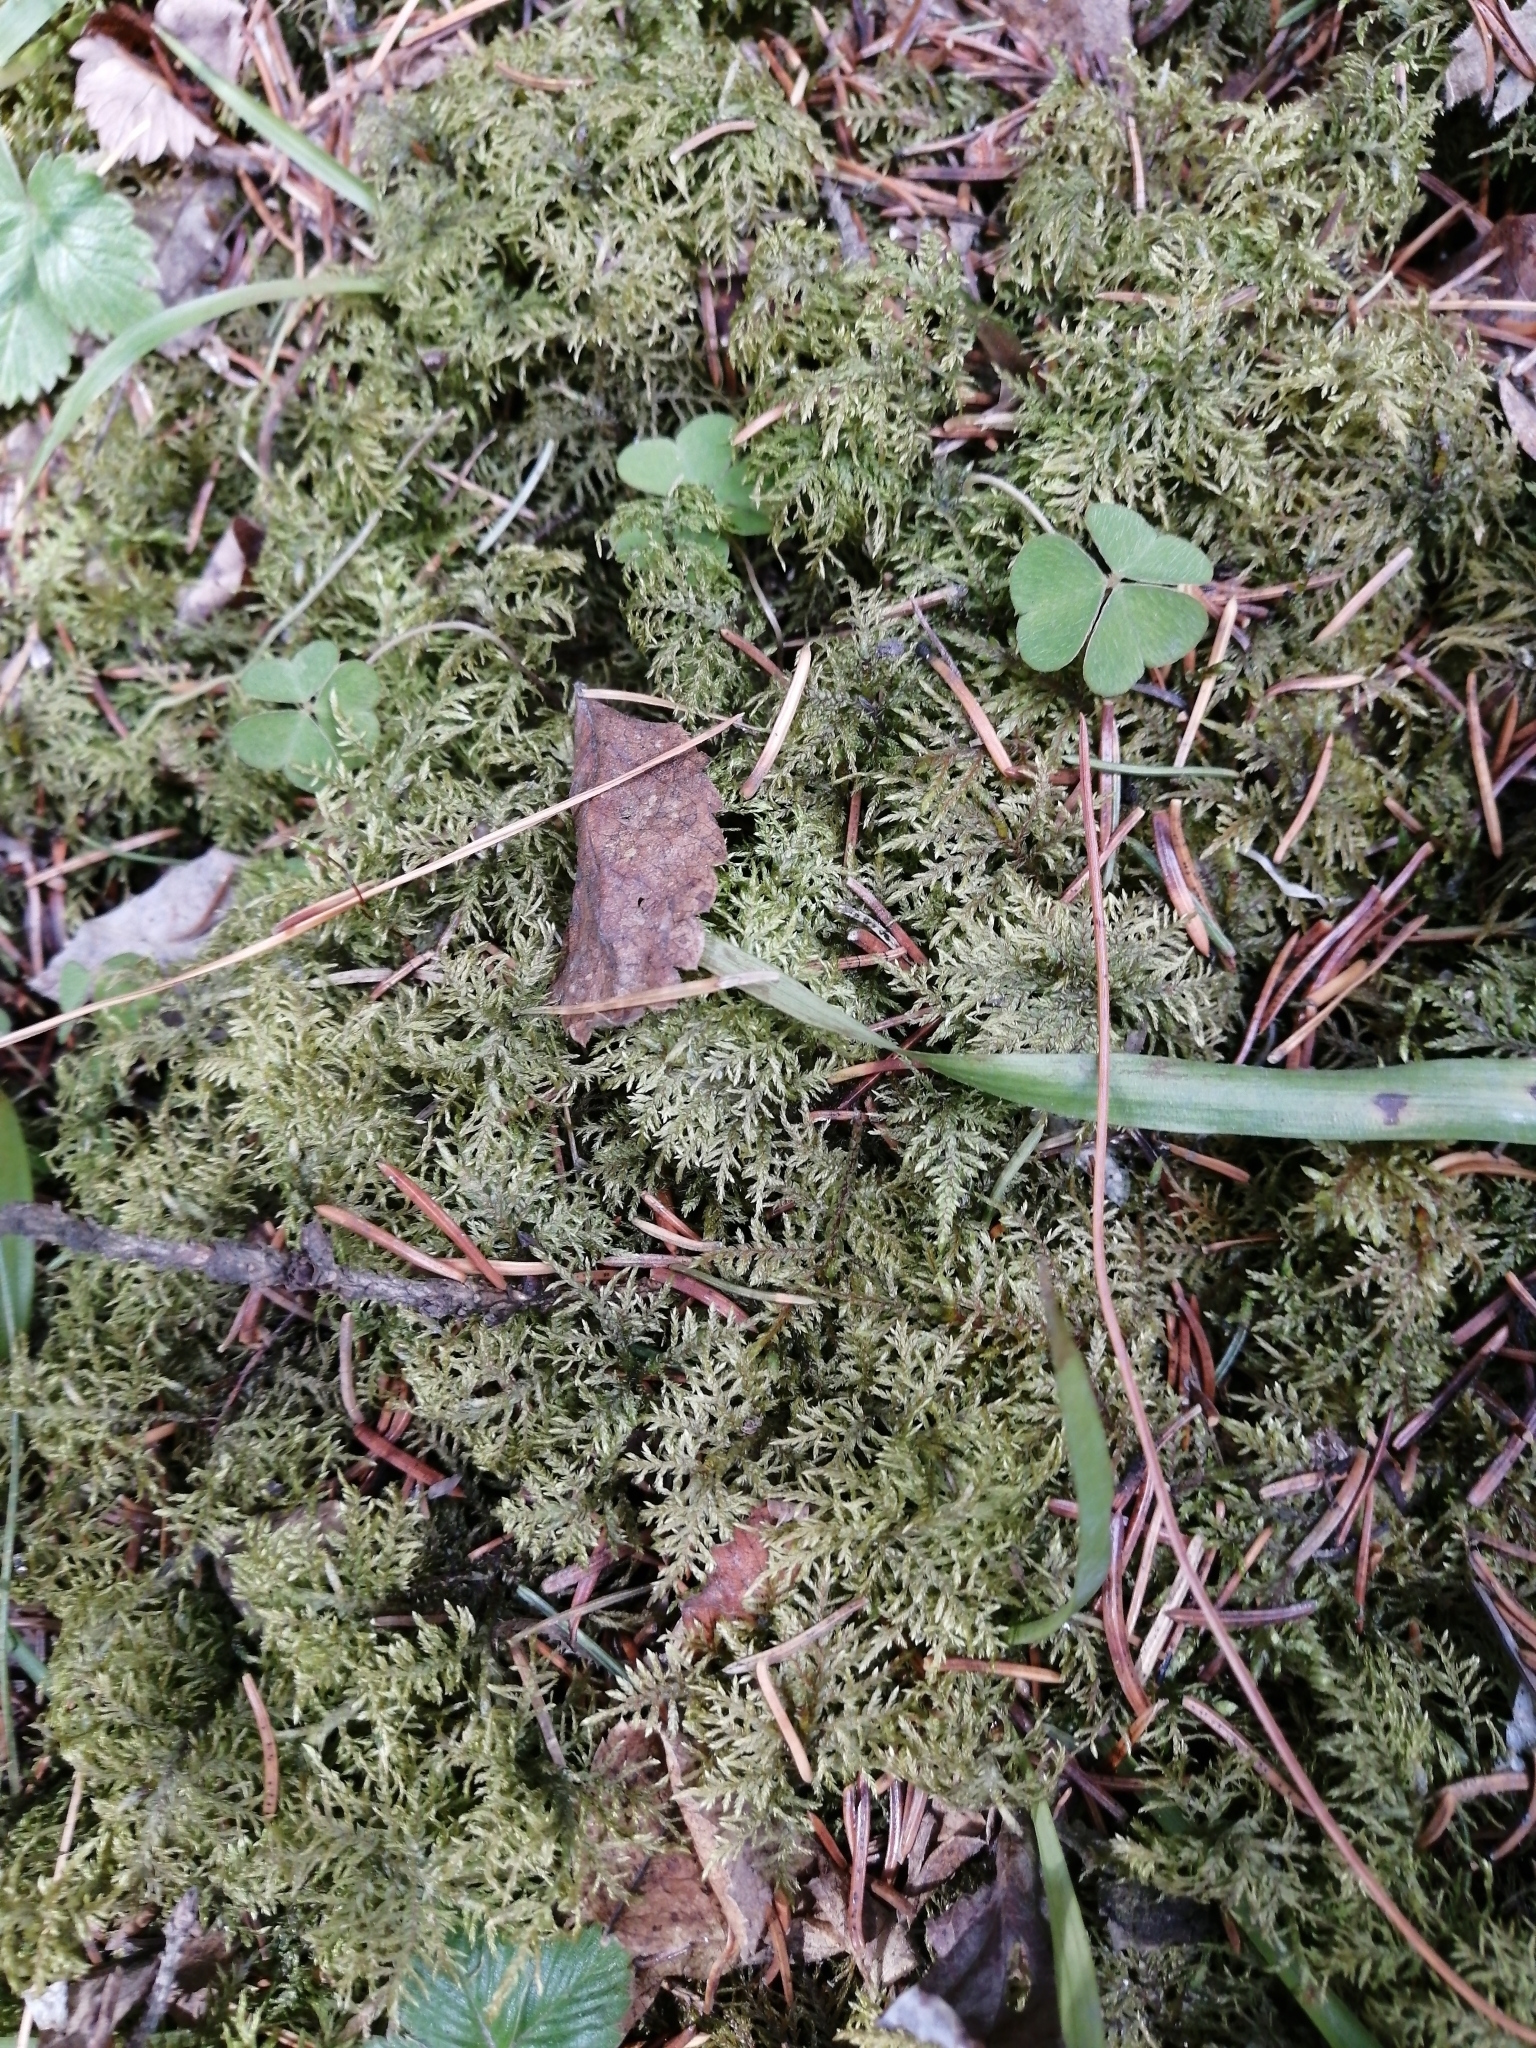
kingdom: Plantae
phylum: Bryophyta
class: Bryopsida
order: Hypnales
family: Hylocomiaceae
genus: Hylocomium
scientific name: Hylocomium splendens
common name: Stairstep moss
